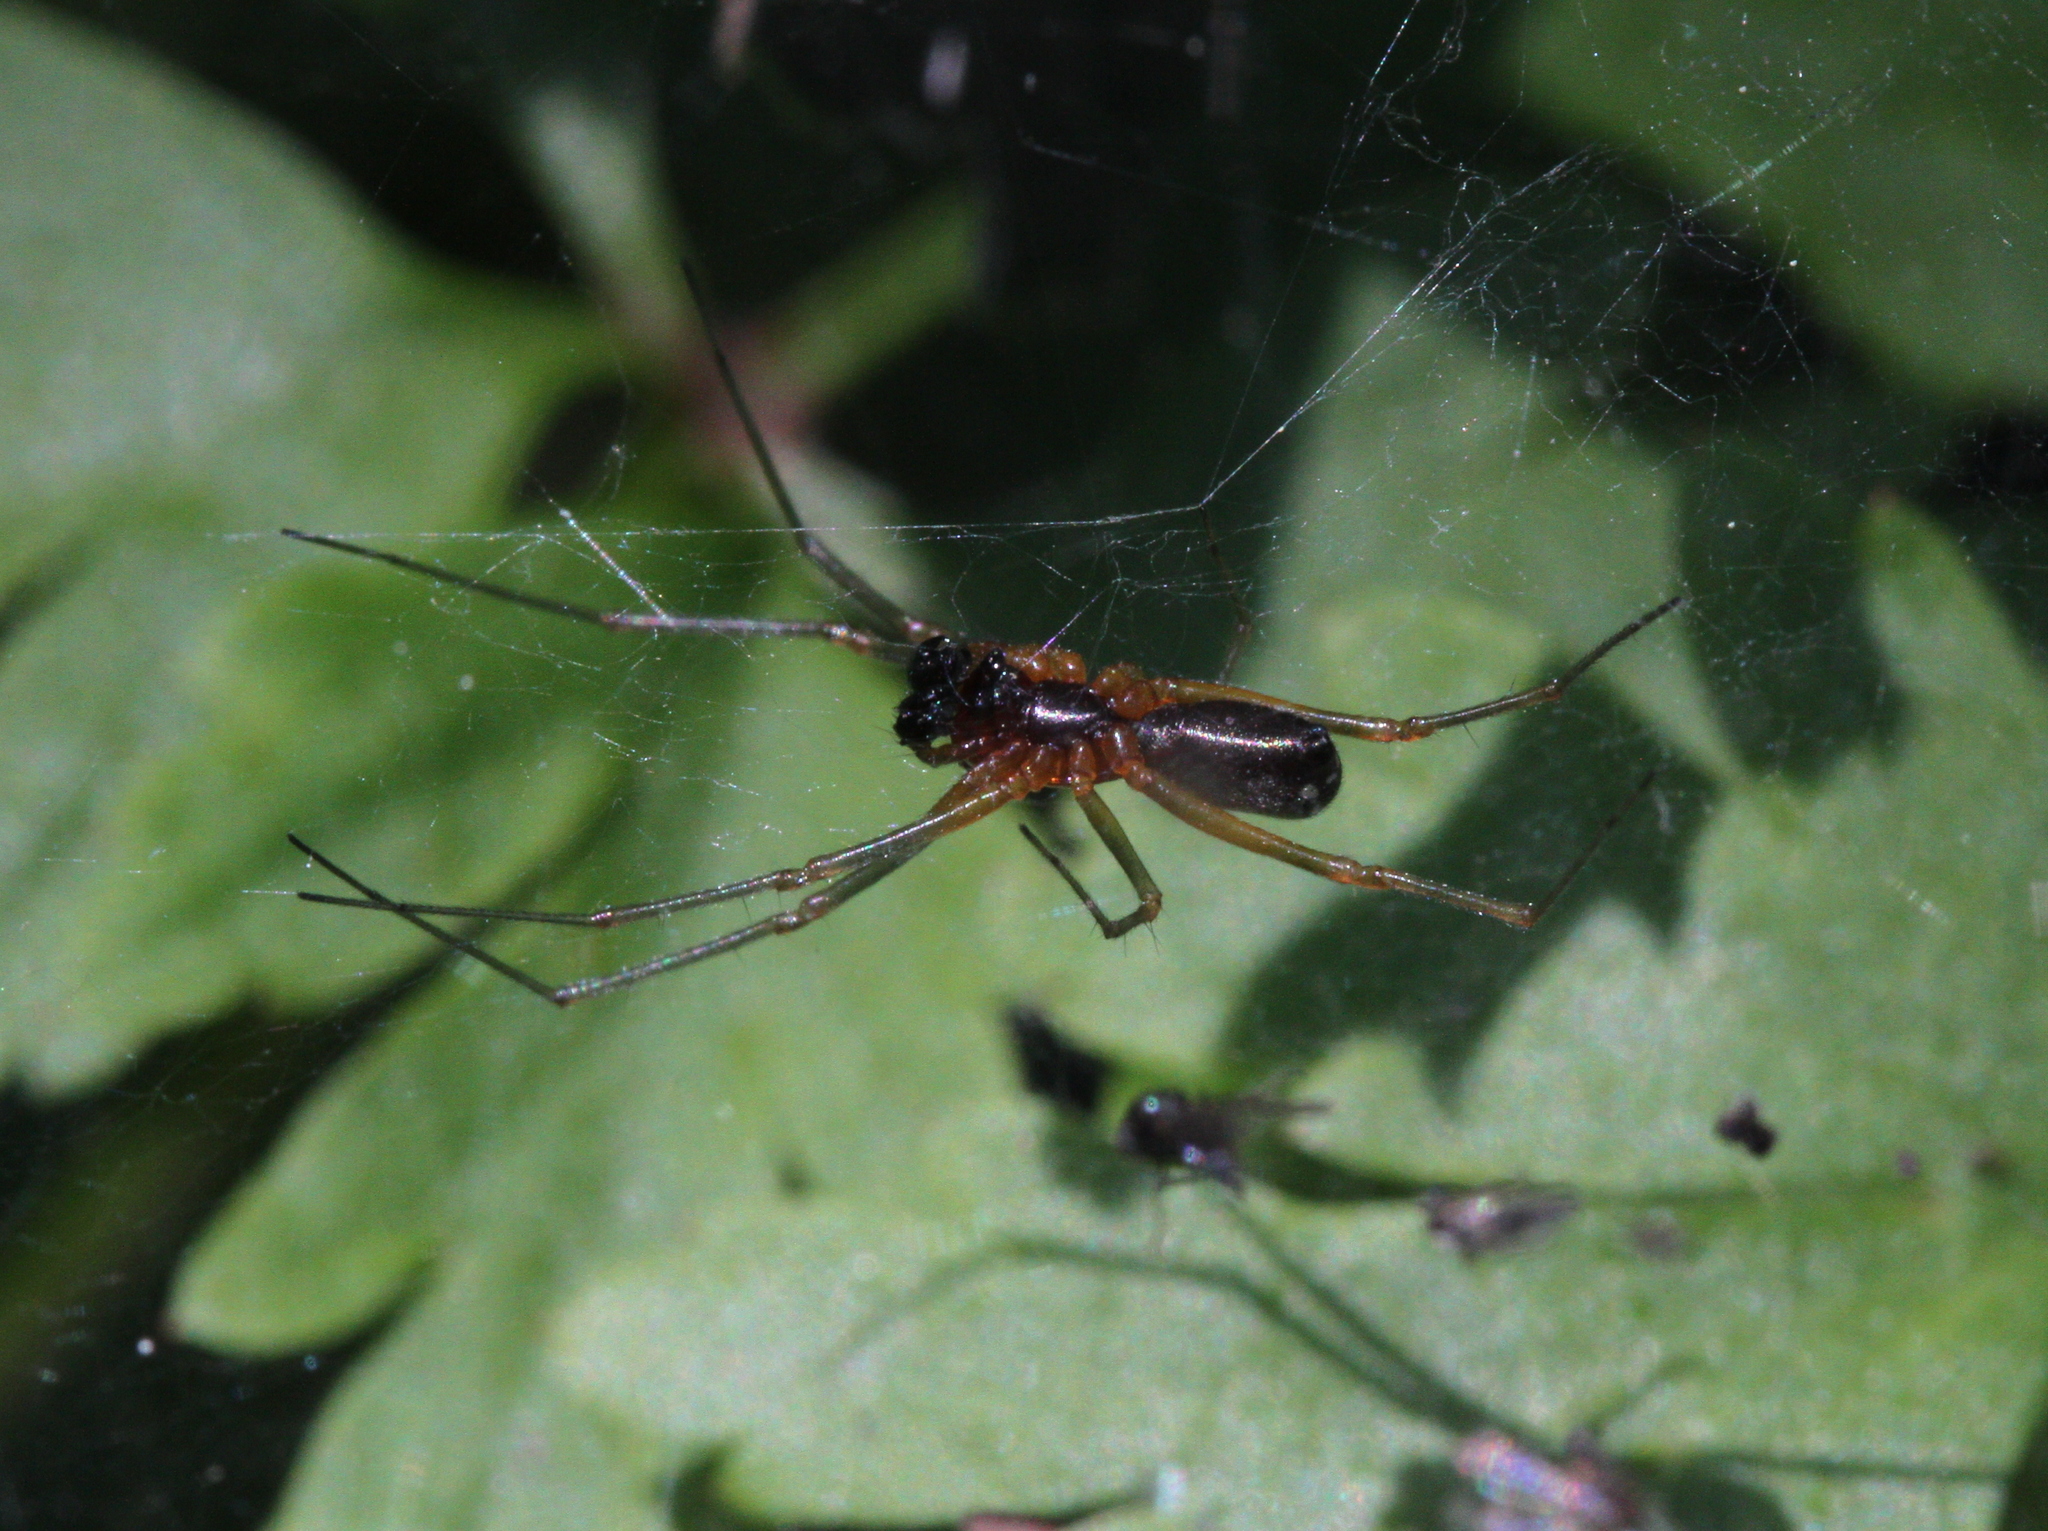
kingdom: Animalia
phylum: Arthropoda
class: Arachnida
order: Araneae
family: Linyphiidae
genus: Frontinellina
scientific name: Frontinellina frutetorum
